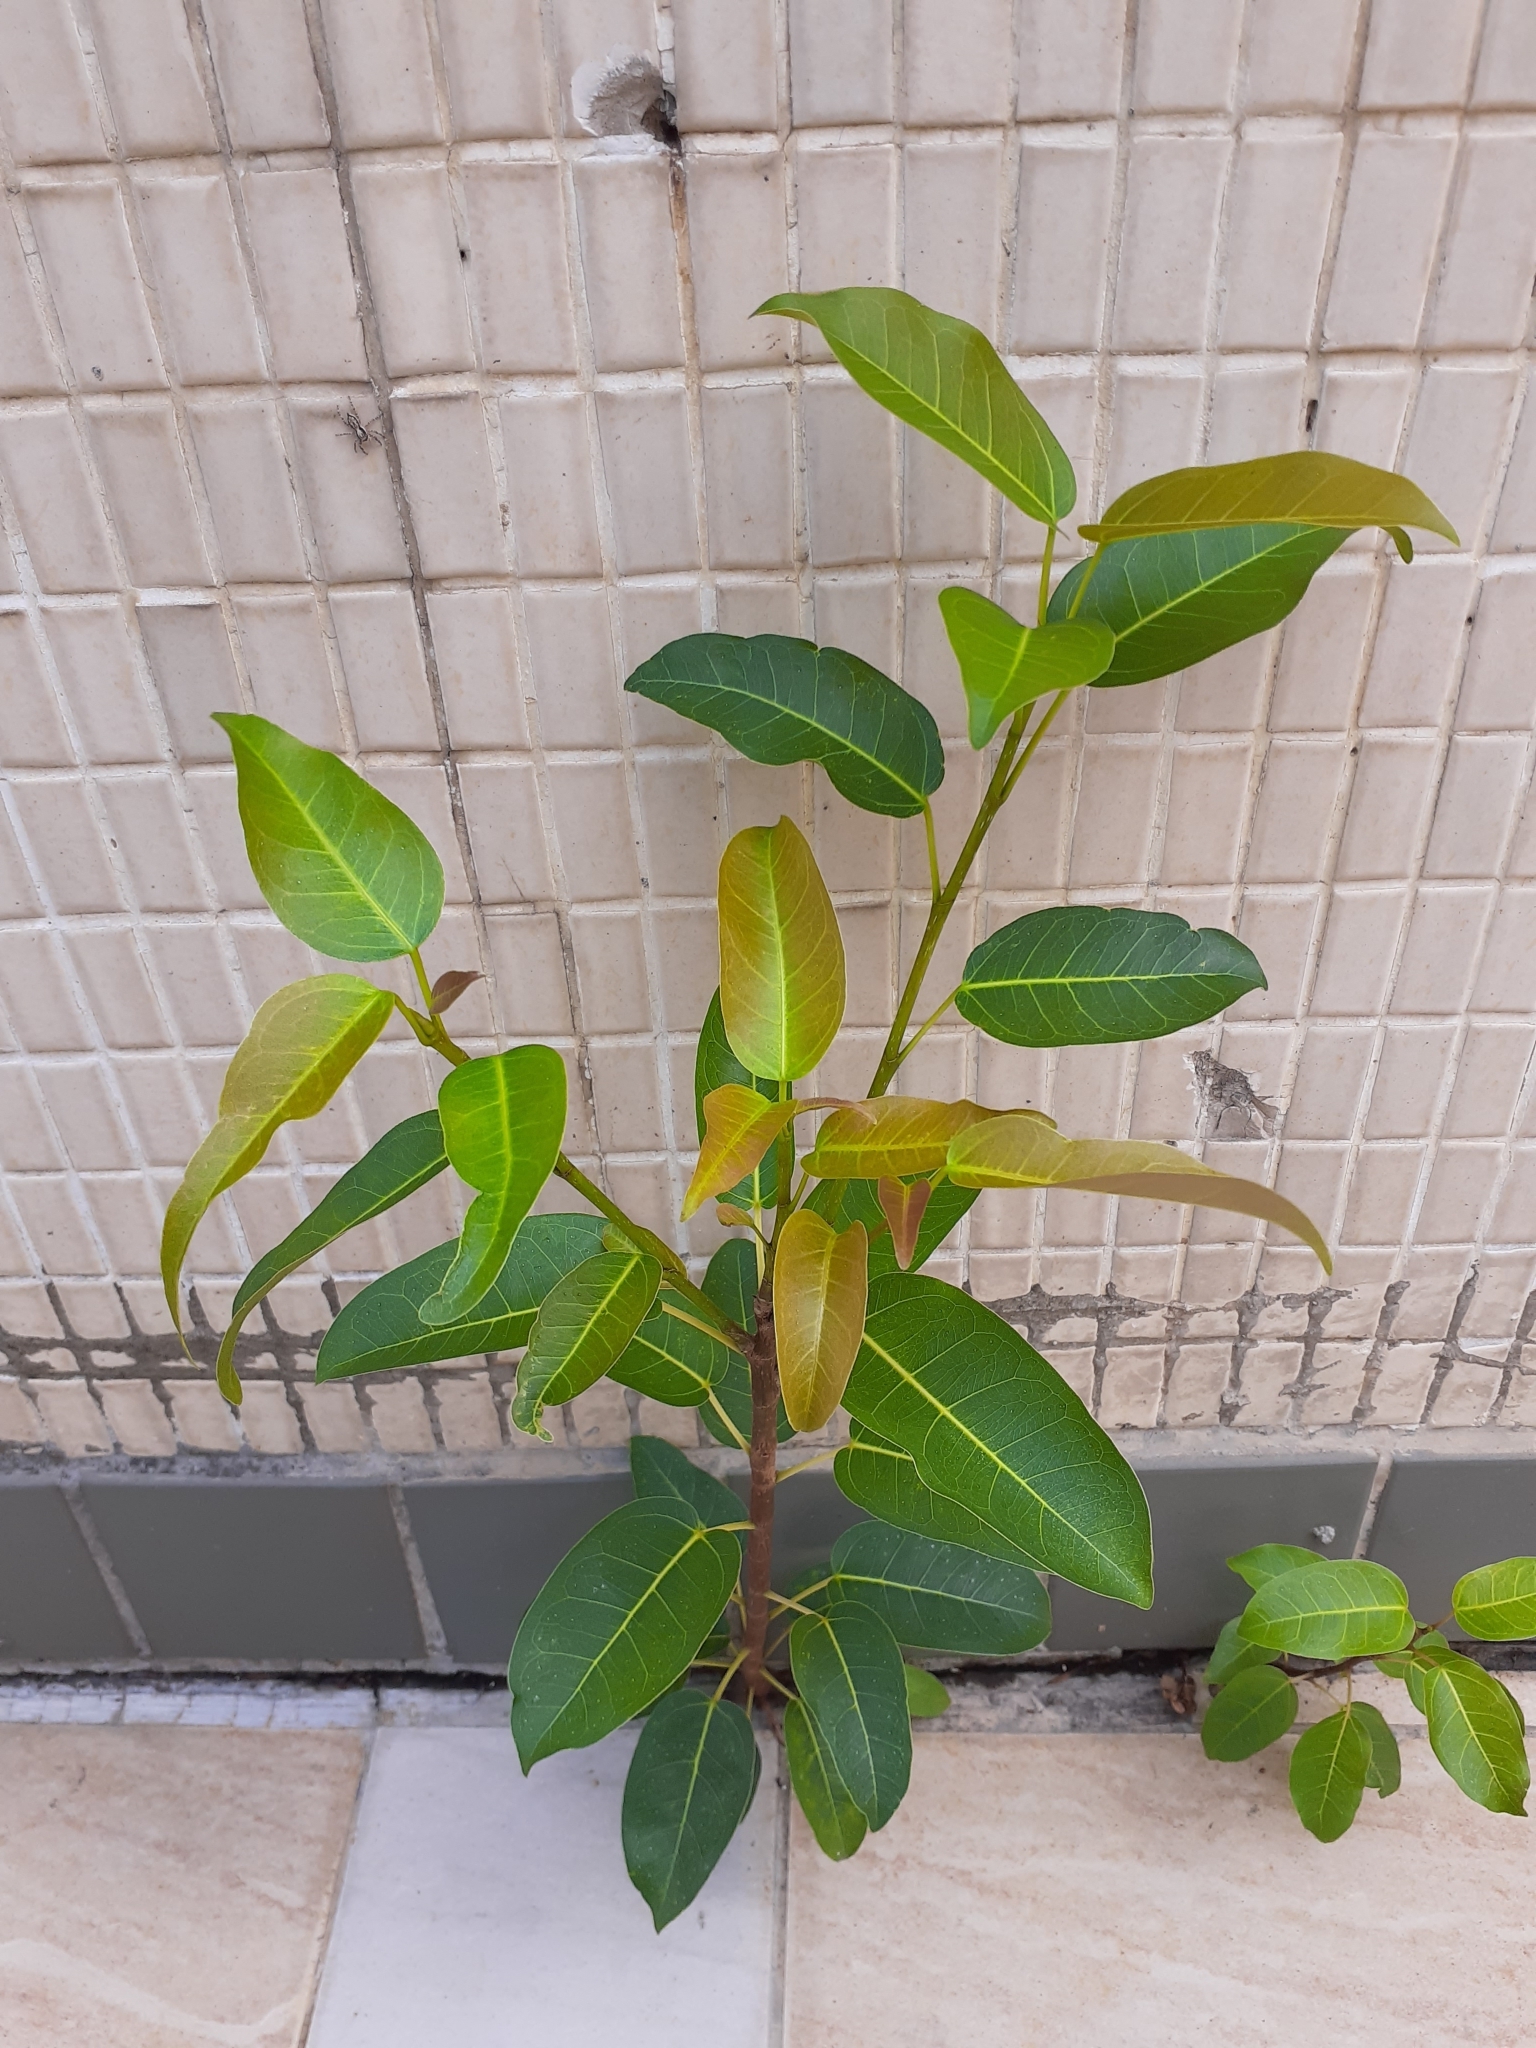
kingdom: Plantae
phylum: Tracheophyta
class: Magnoliopsida
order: Rosales
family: Moraceae
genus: Ficus
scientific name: Ficus subpisocarpa
